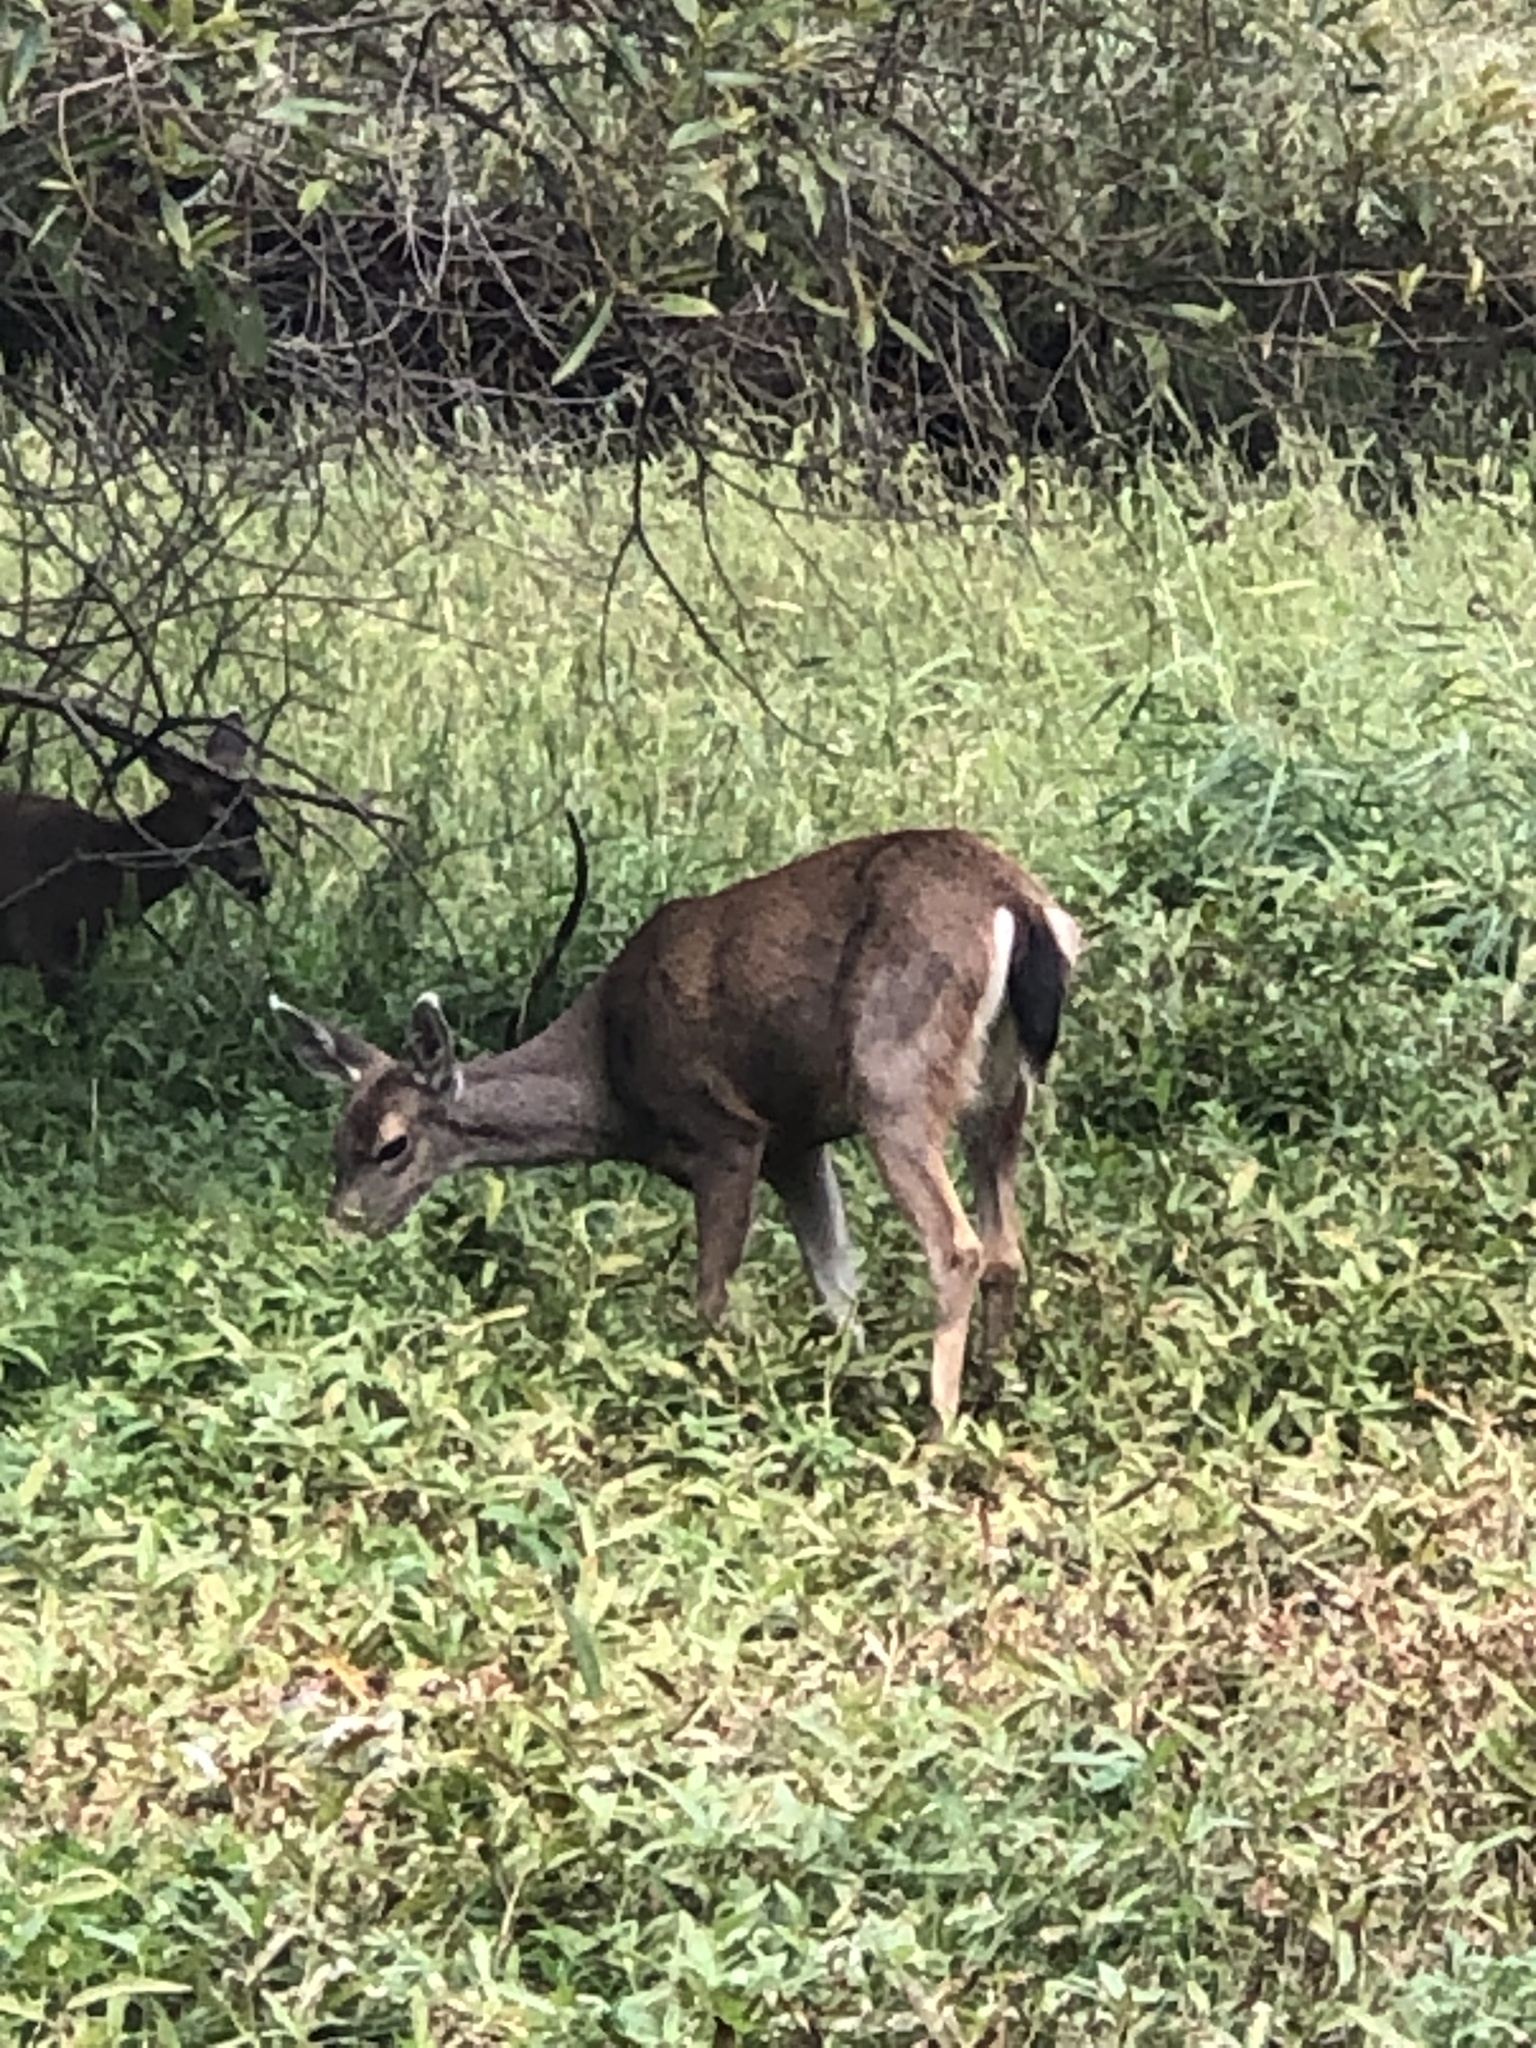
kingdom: Animalia
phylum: Chordata
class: Mammalia
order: Artiodactyla
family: Cervidae
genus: Odocoileus
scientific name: Odocoileus hemionus
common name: Mule deer
